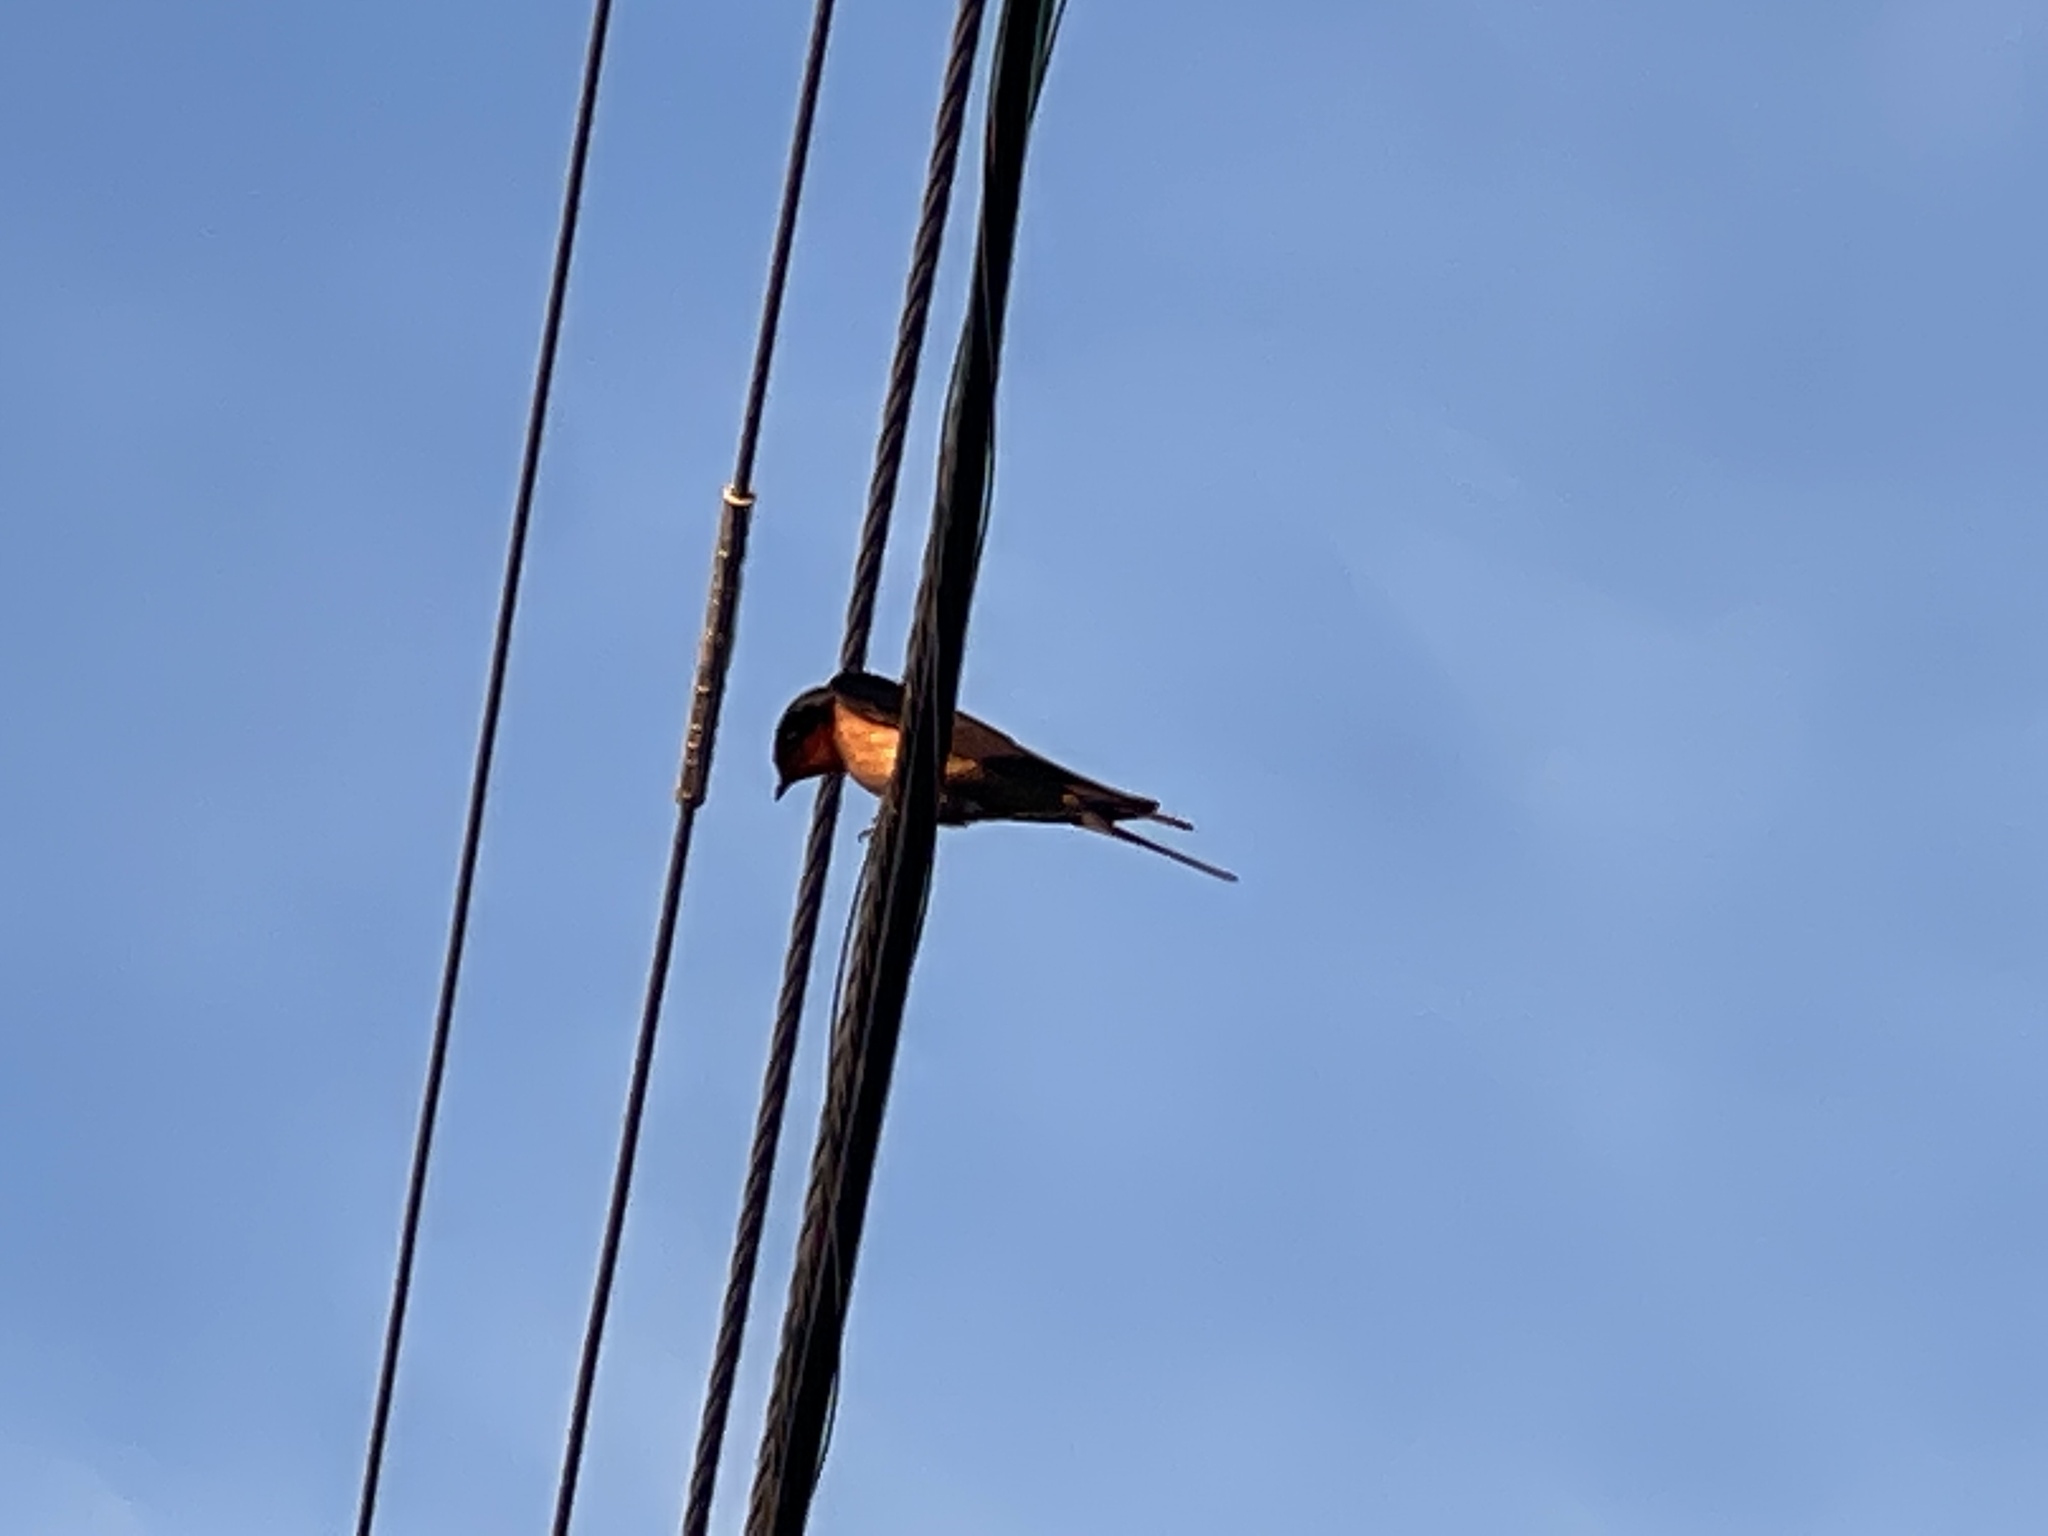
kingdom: Animalia
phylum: Chordata
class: Aves
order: Passeriformes
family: Hirundinidae
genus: Hirundo
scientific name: Hirundo rustica
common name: Barn swallow
